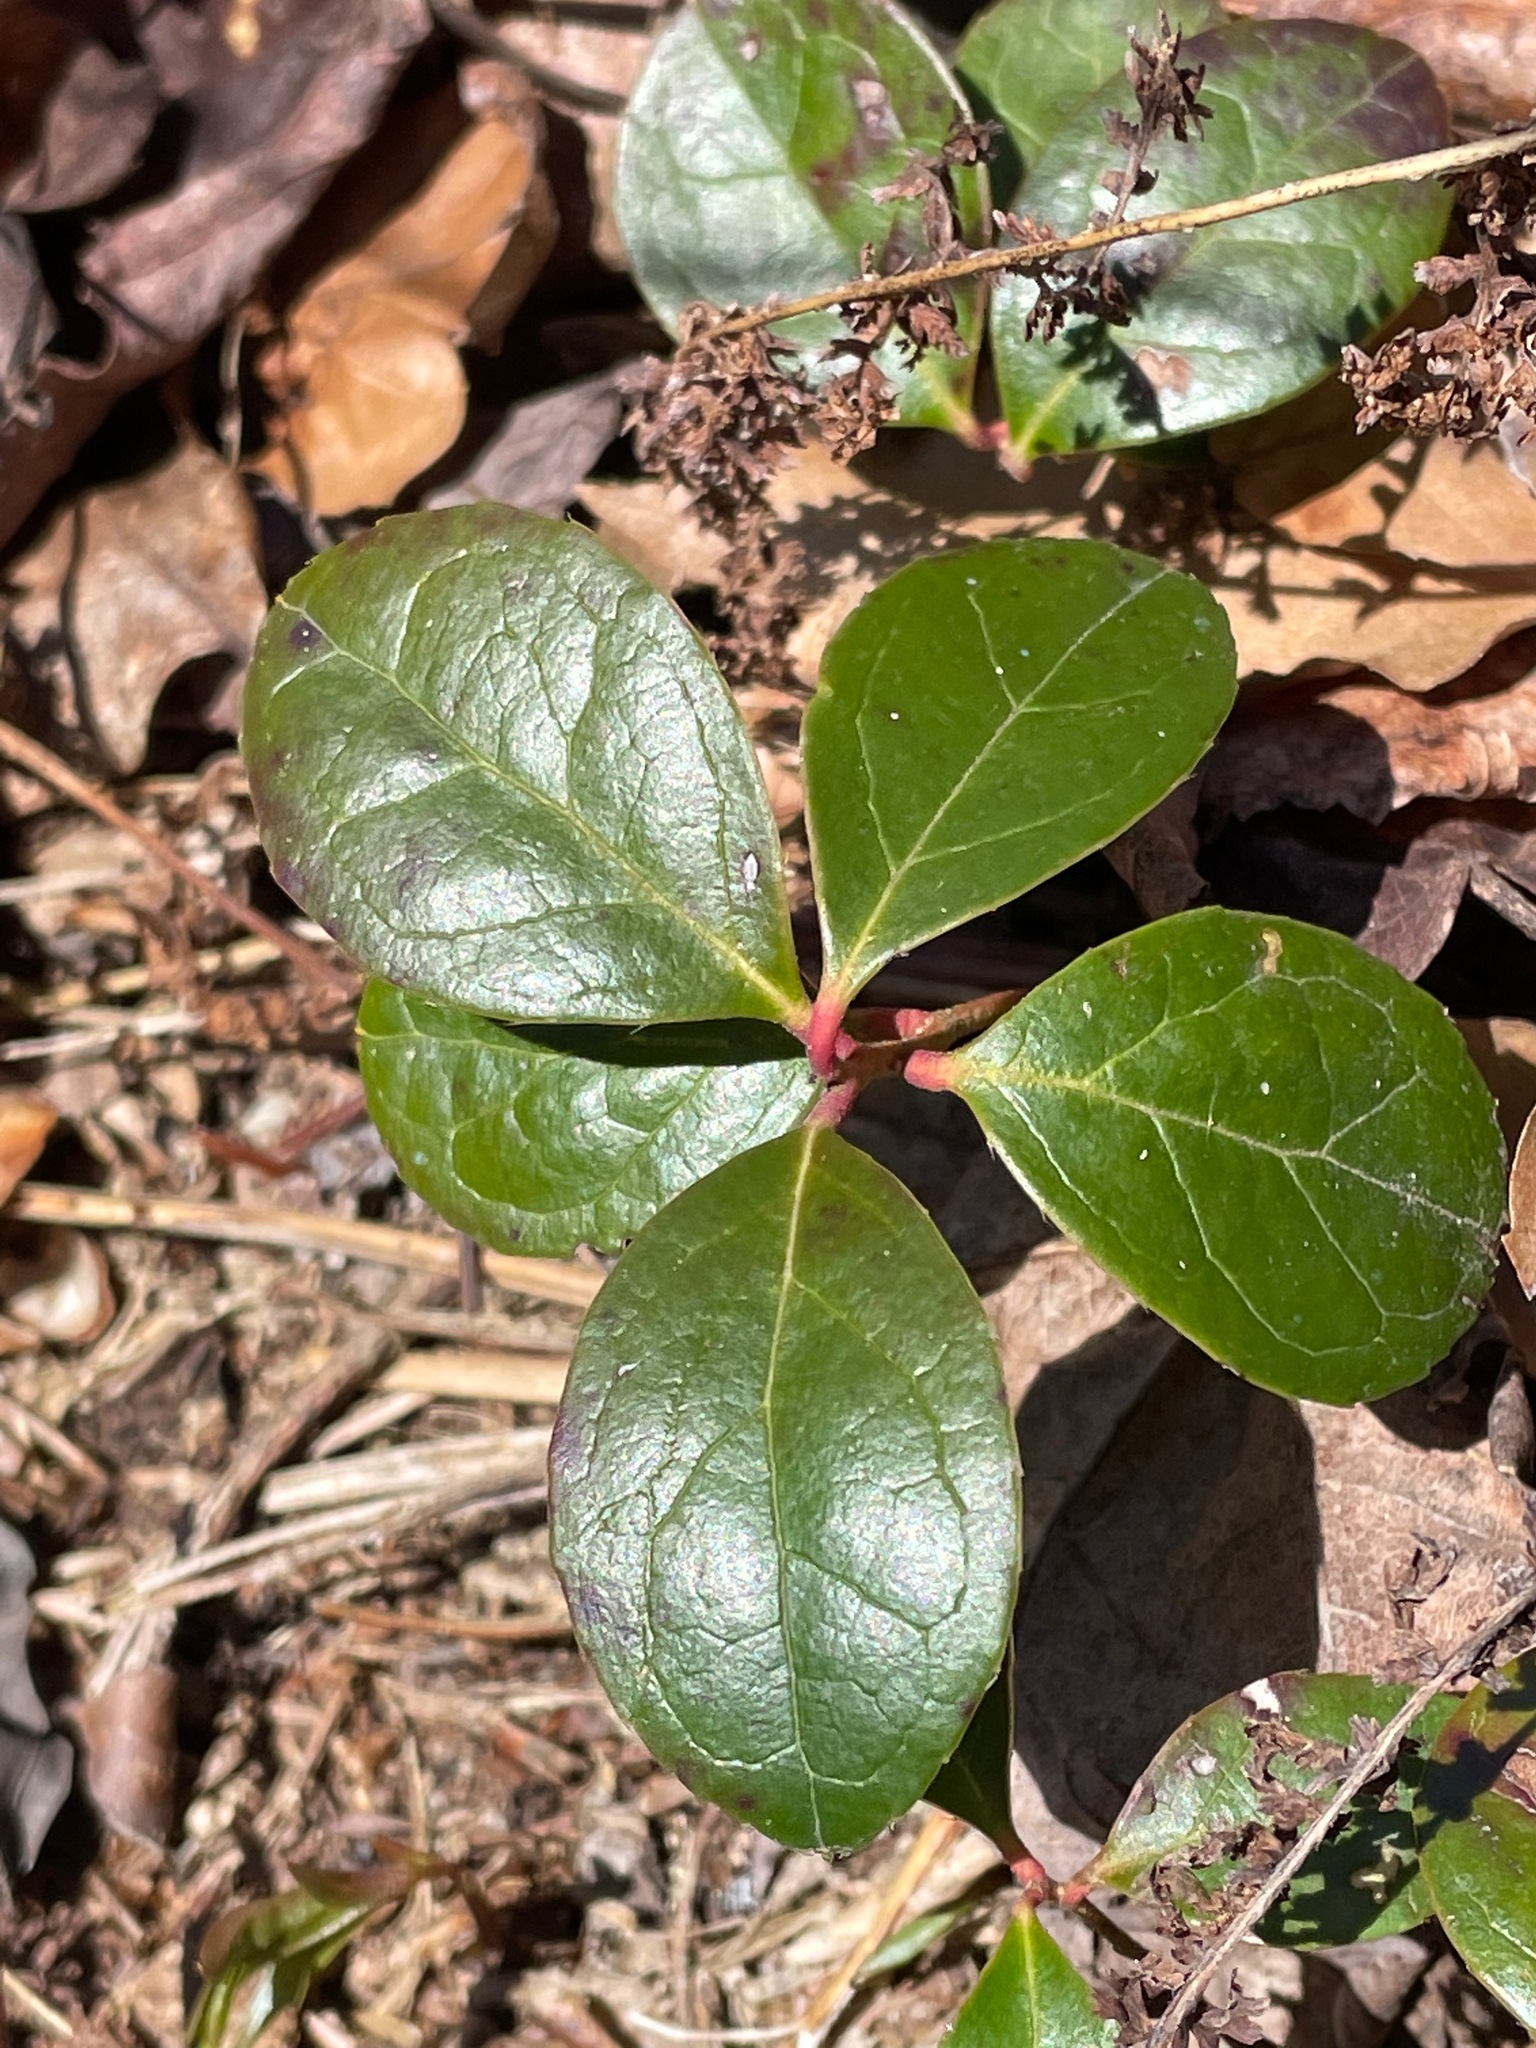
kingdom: Plantae
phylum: Tracheophyta
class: Magnoliopsida
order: Ericales
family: Ericaceae
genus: Gaultheria
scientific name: Gaultheria procumbens
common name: Checkerberry
